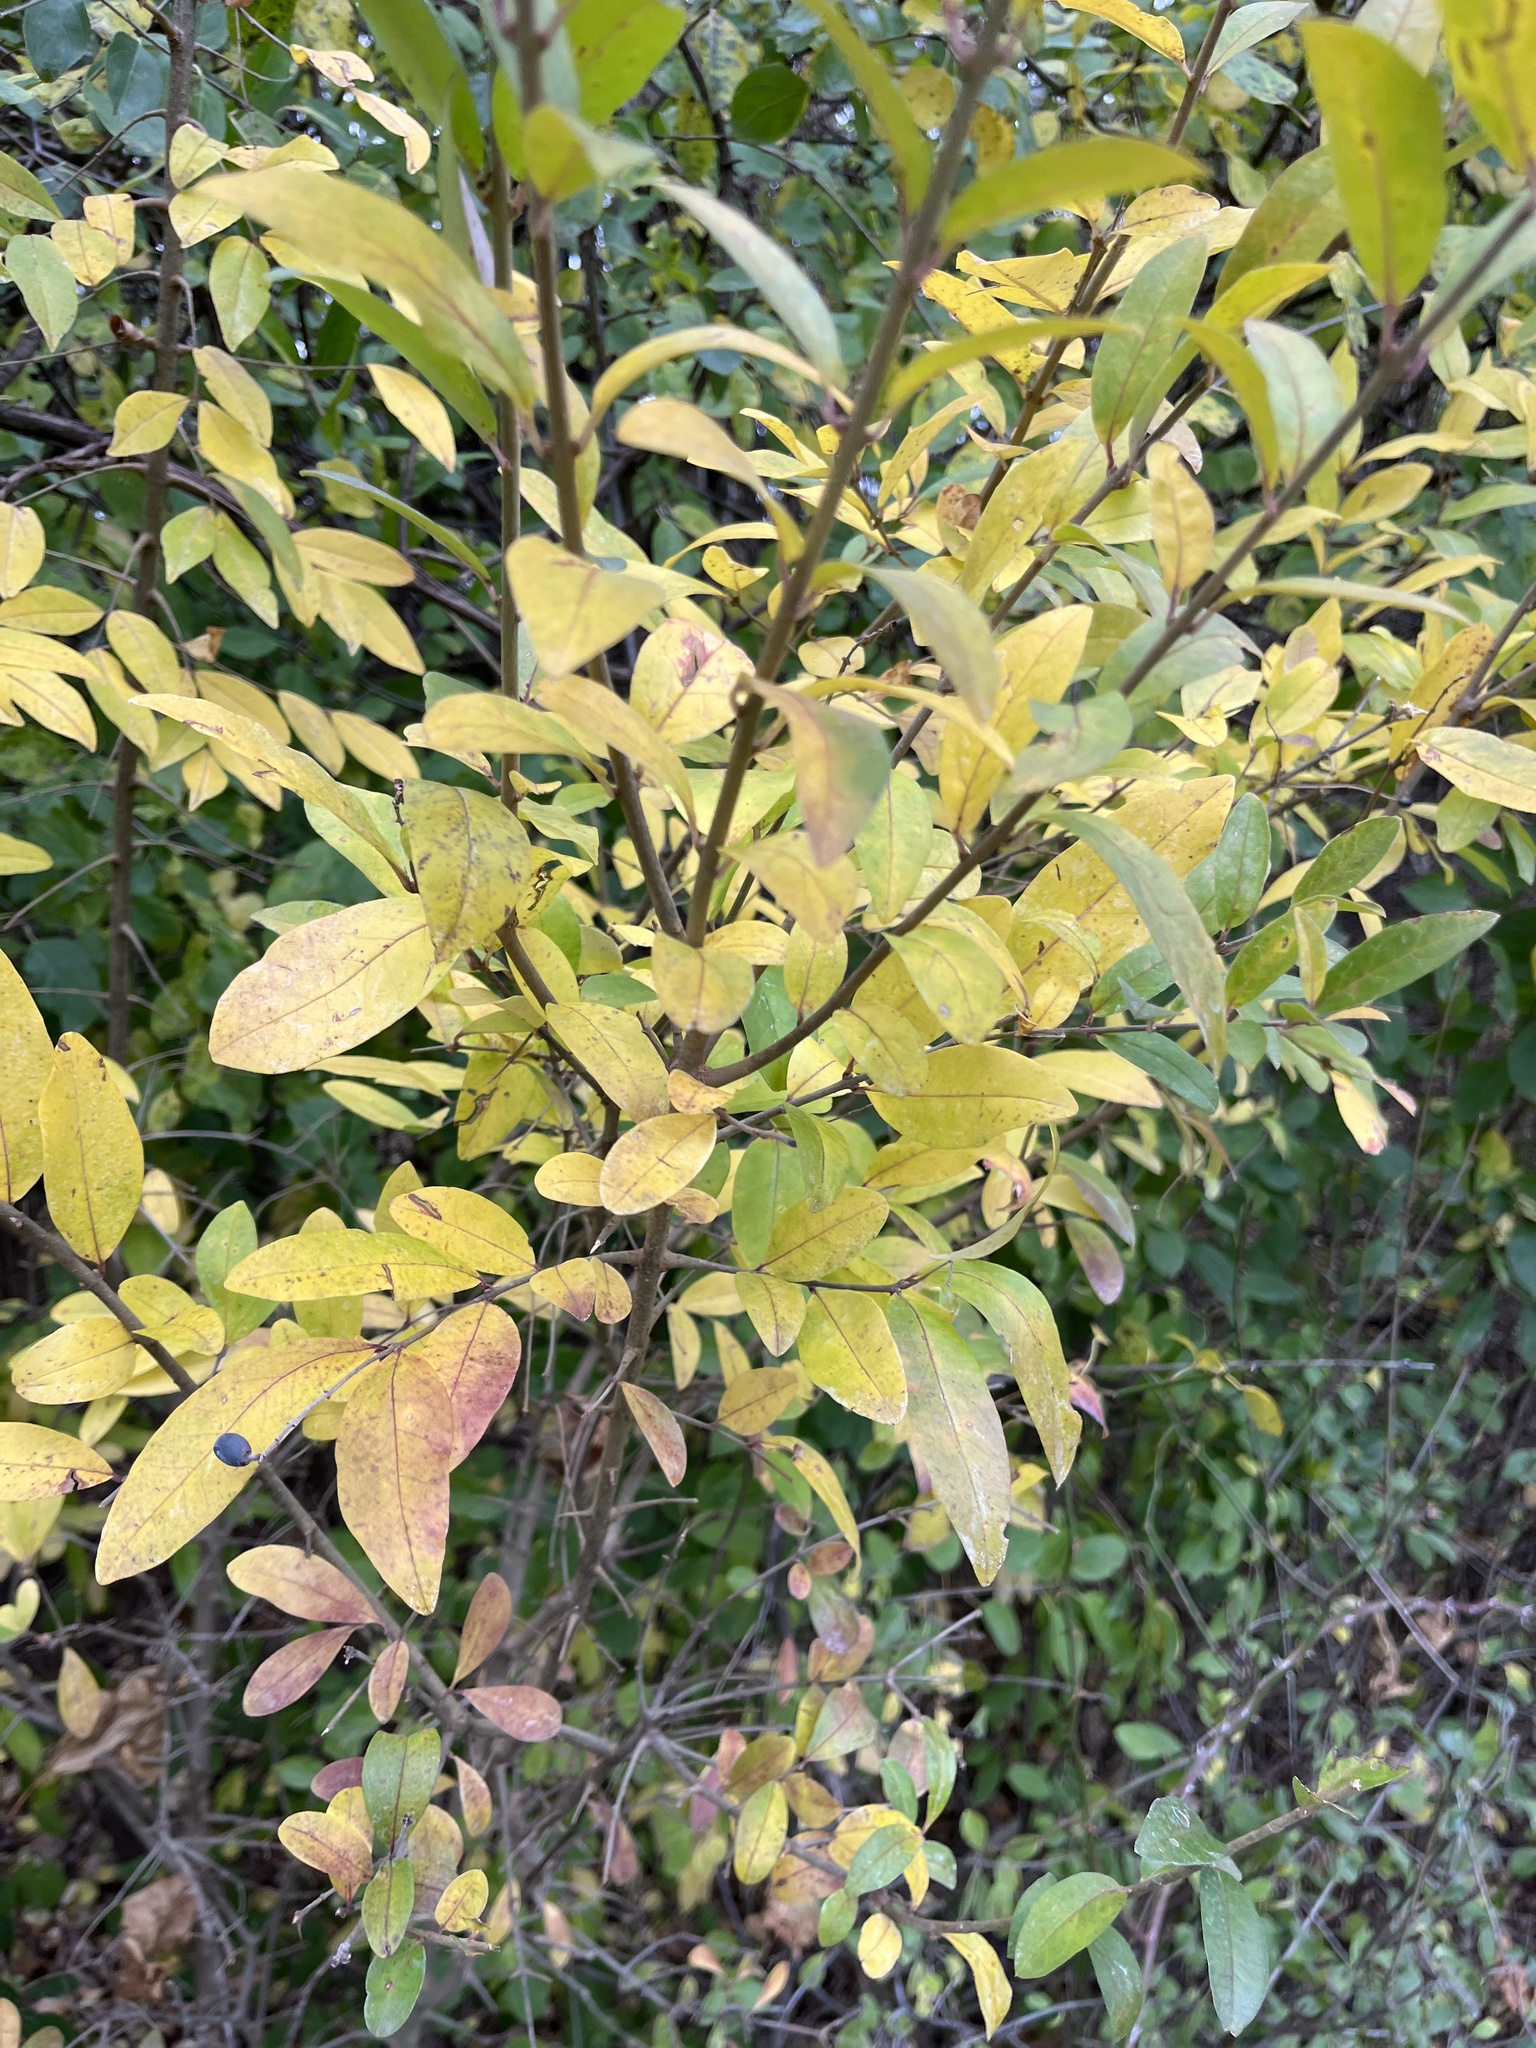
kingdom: Plantae
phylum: Tracheophyta
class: Magnoliopsida
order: Lamiales
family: Oleaceae
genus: Ligustrum
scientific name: Ligustrum obtusifolium
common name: Border privet
